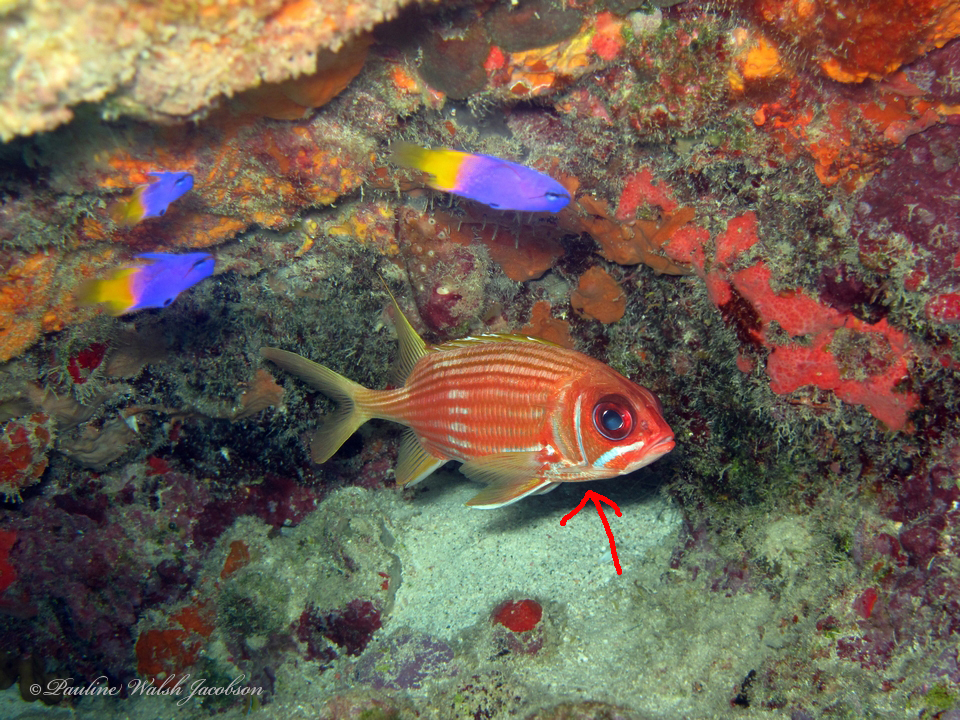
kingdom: Animalia
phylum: Chordata
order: Beryciformes
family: Holocentridae
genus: Holocentrus
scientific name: Holocentrus rufus
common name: Longspine squirrelfish
